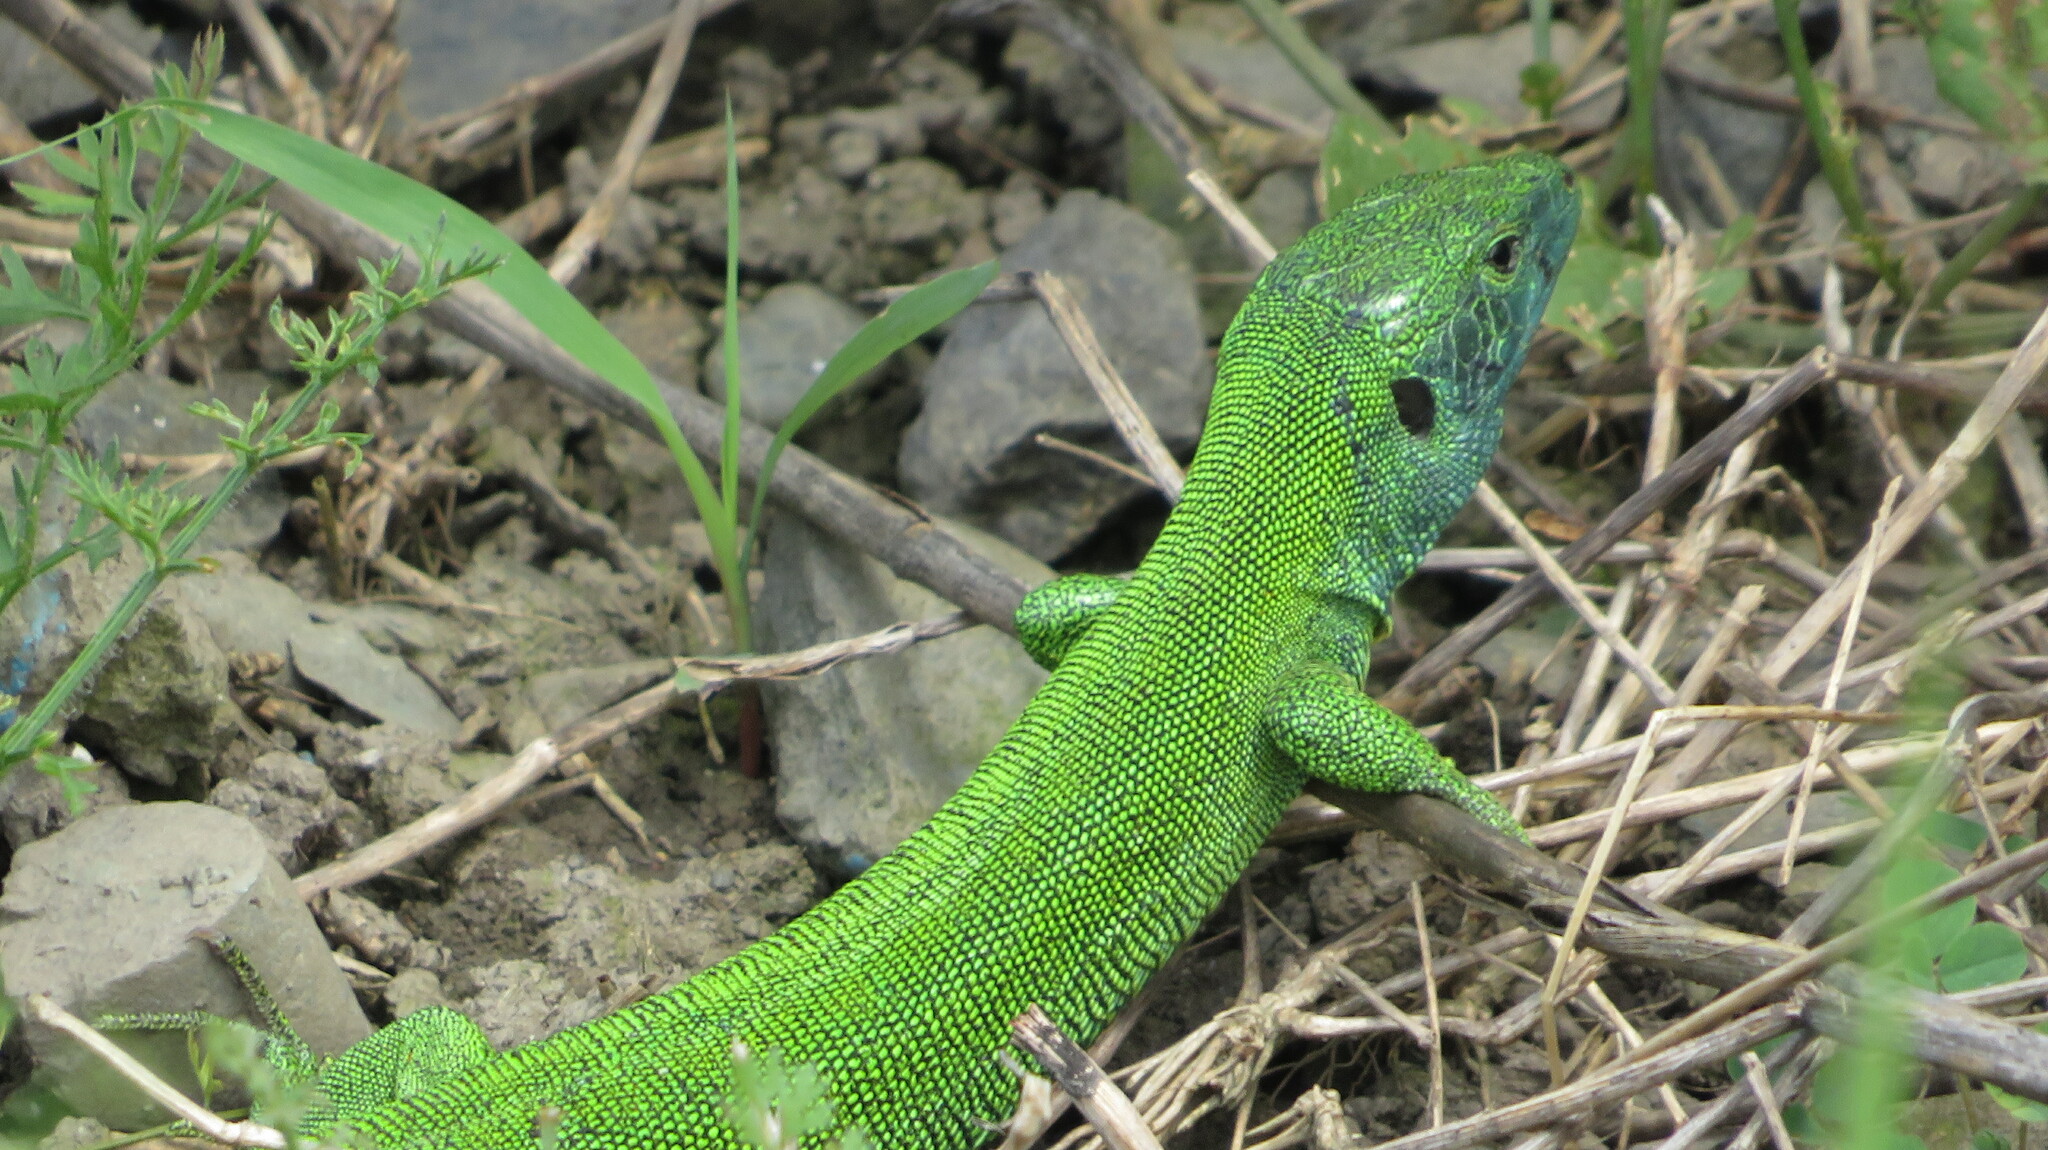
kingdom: Animalia
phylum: Chordata
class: Squamata
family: Lacertidae
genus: Lacerta
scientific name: Lacerta agilis
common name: Sand lizard
